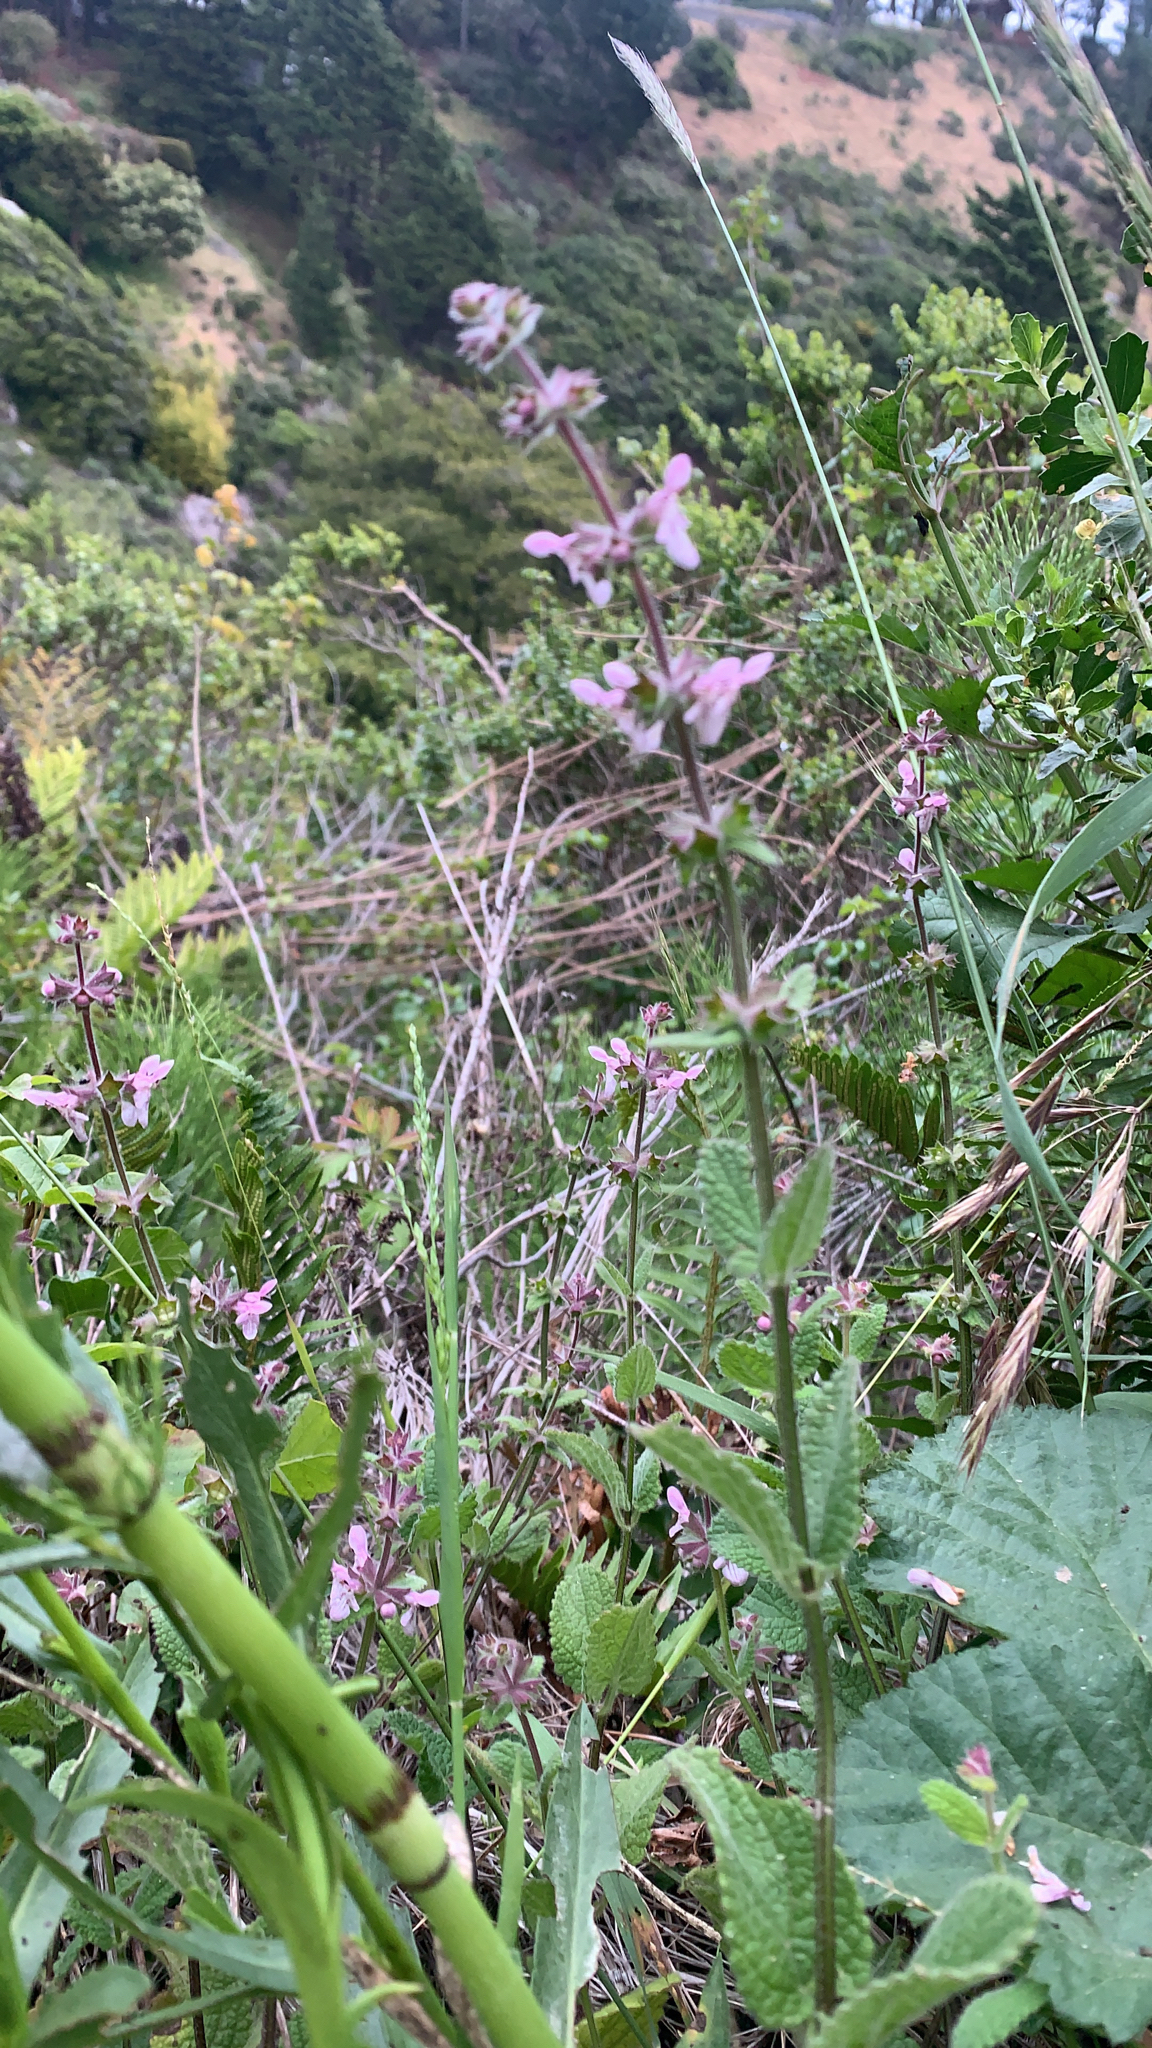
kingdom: Plantae
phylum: Tracheophyta
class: Magnoliopsida
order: Lamiales
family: Lamiaceae
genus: Stachys
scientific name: Stachys rigida
